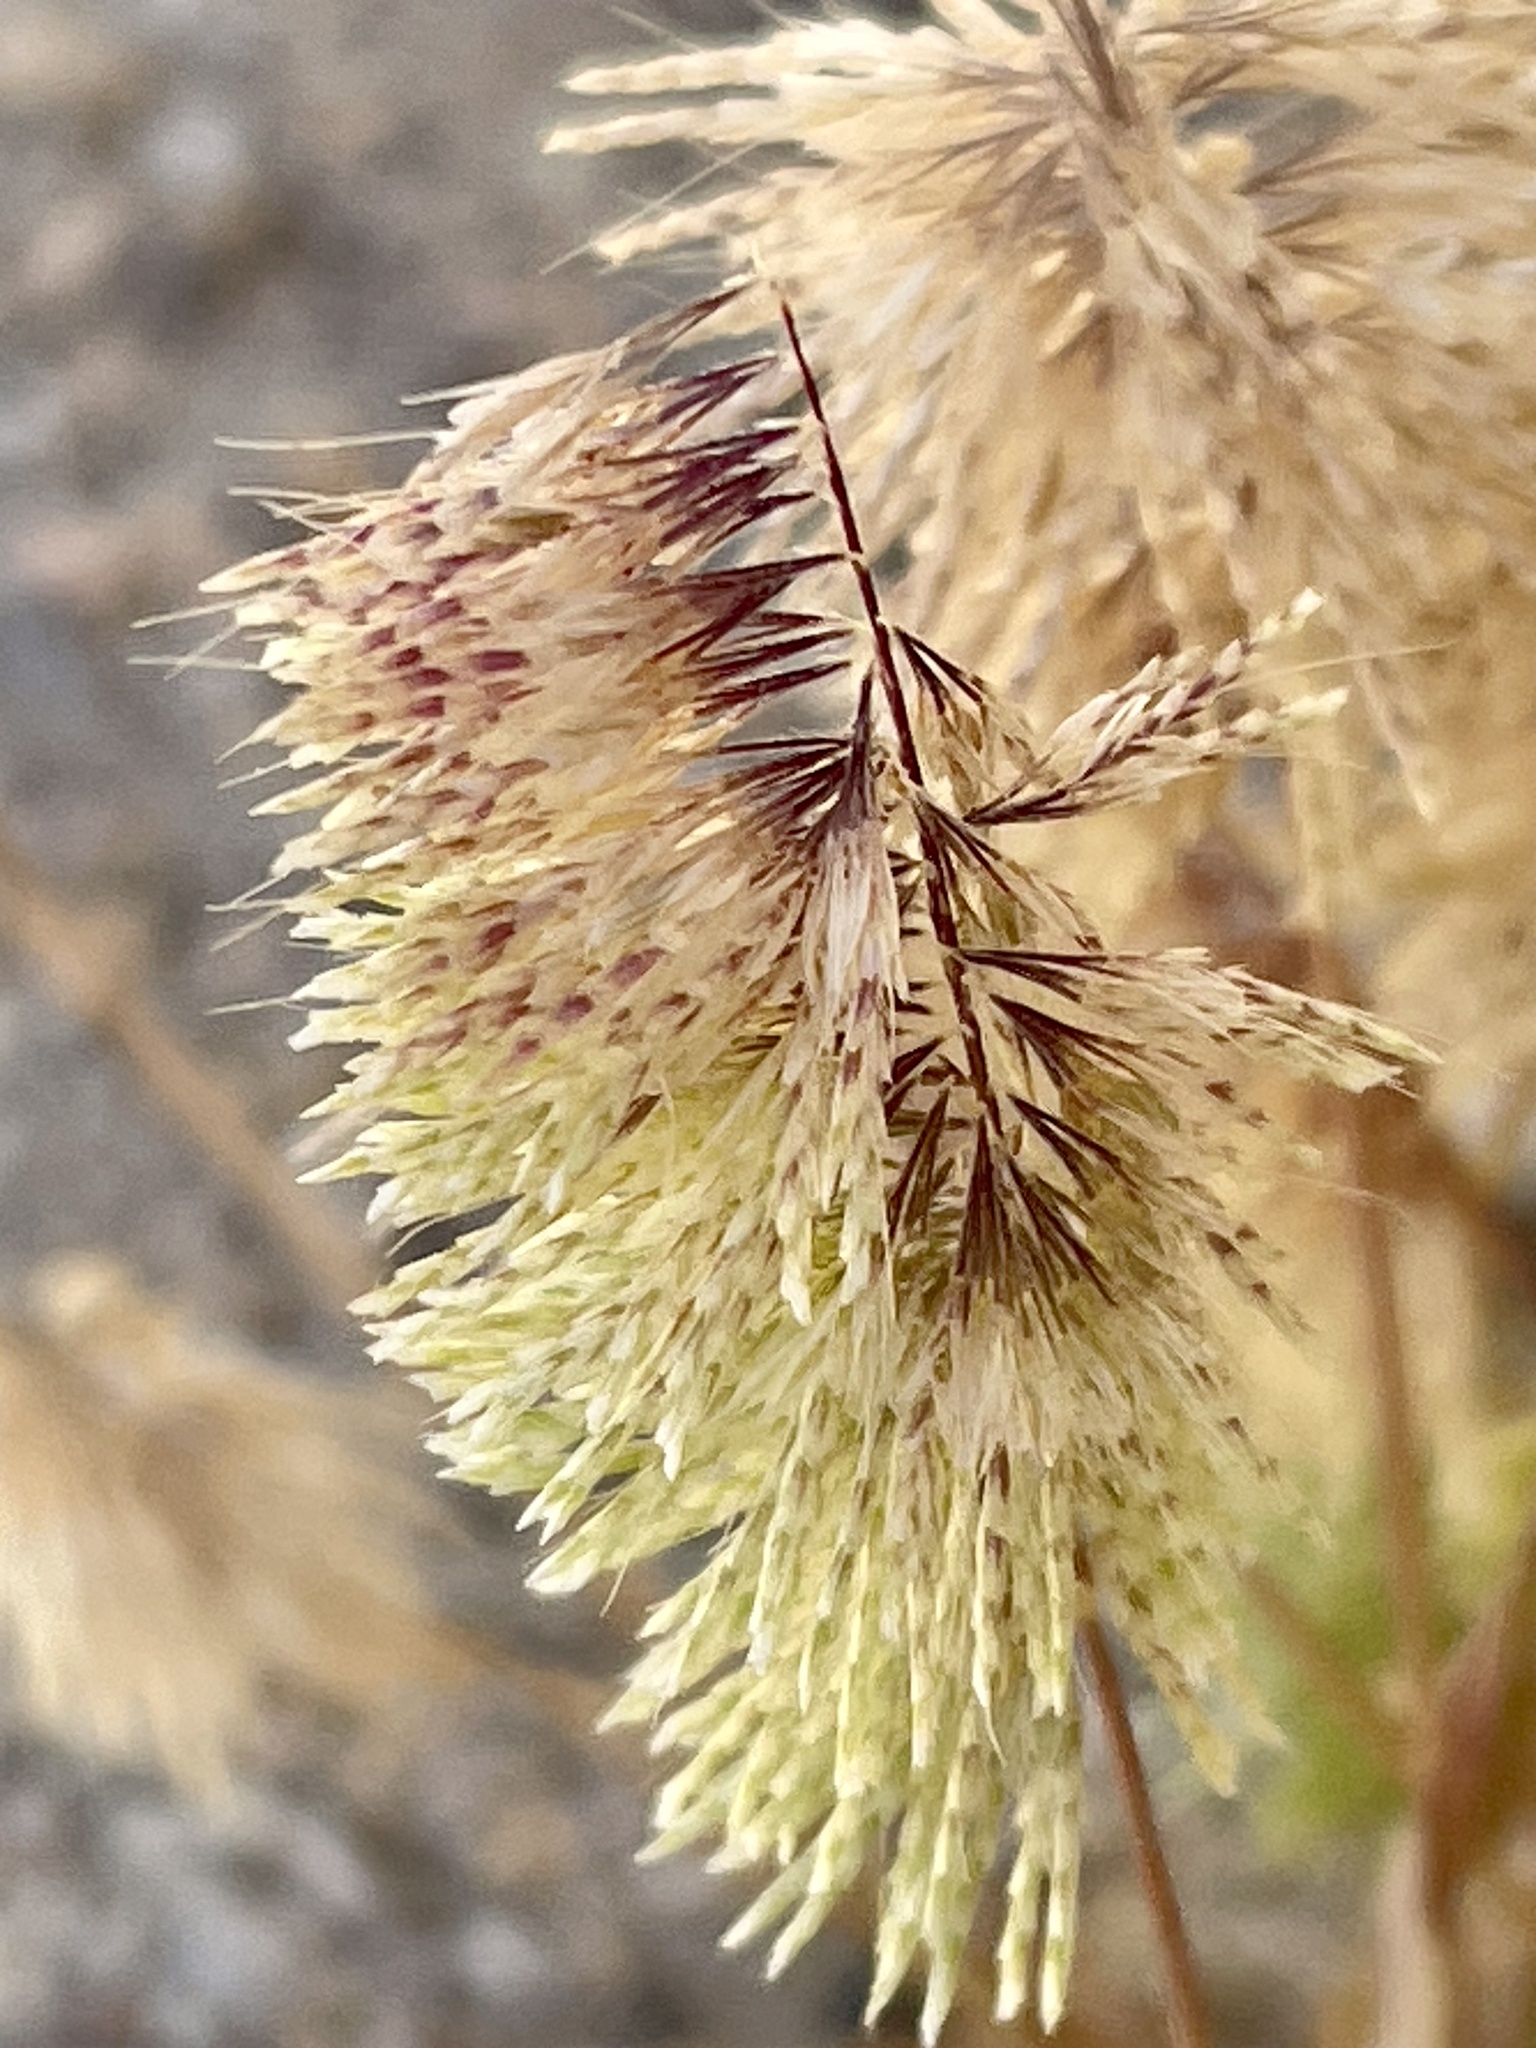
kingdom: Plantae
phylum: Tracheophyta
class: Liliopsida
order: Poales
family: Poaceae
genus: Lamarckia
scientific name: Lamarckia aurea
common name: Golden dog's-tail
